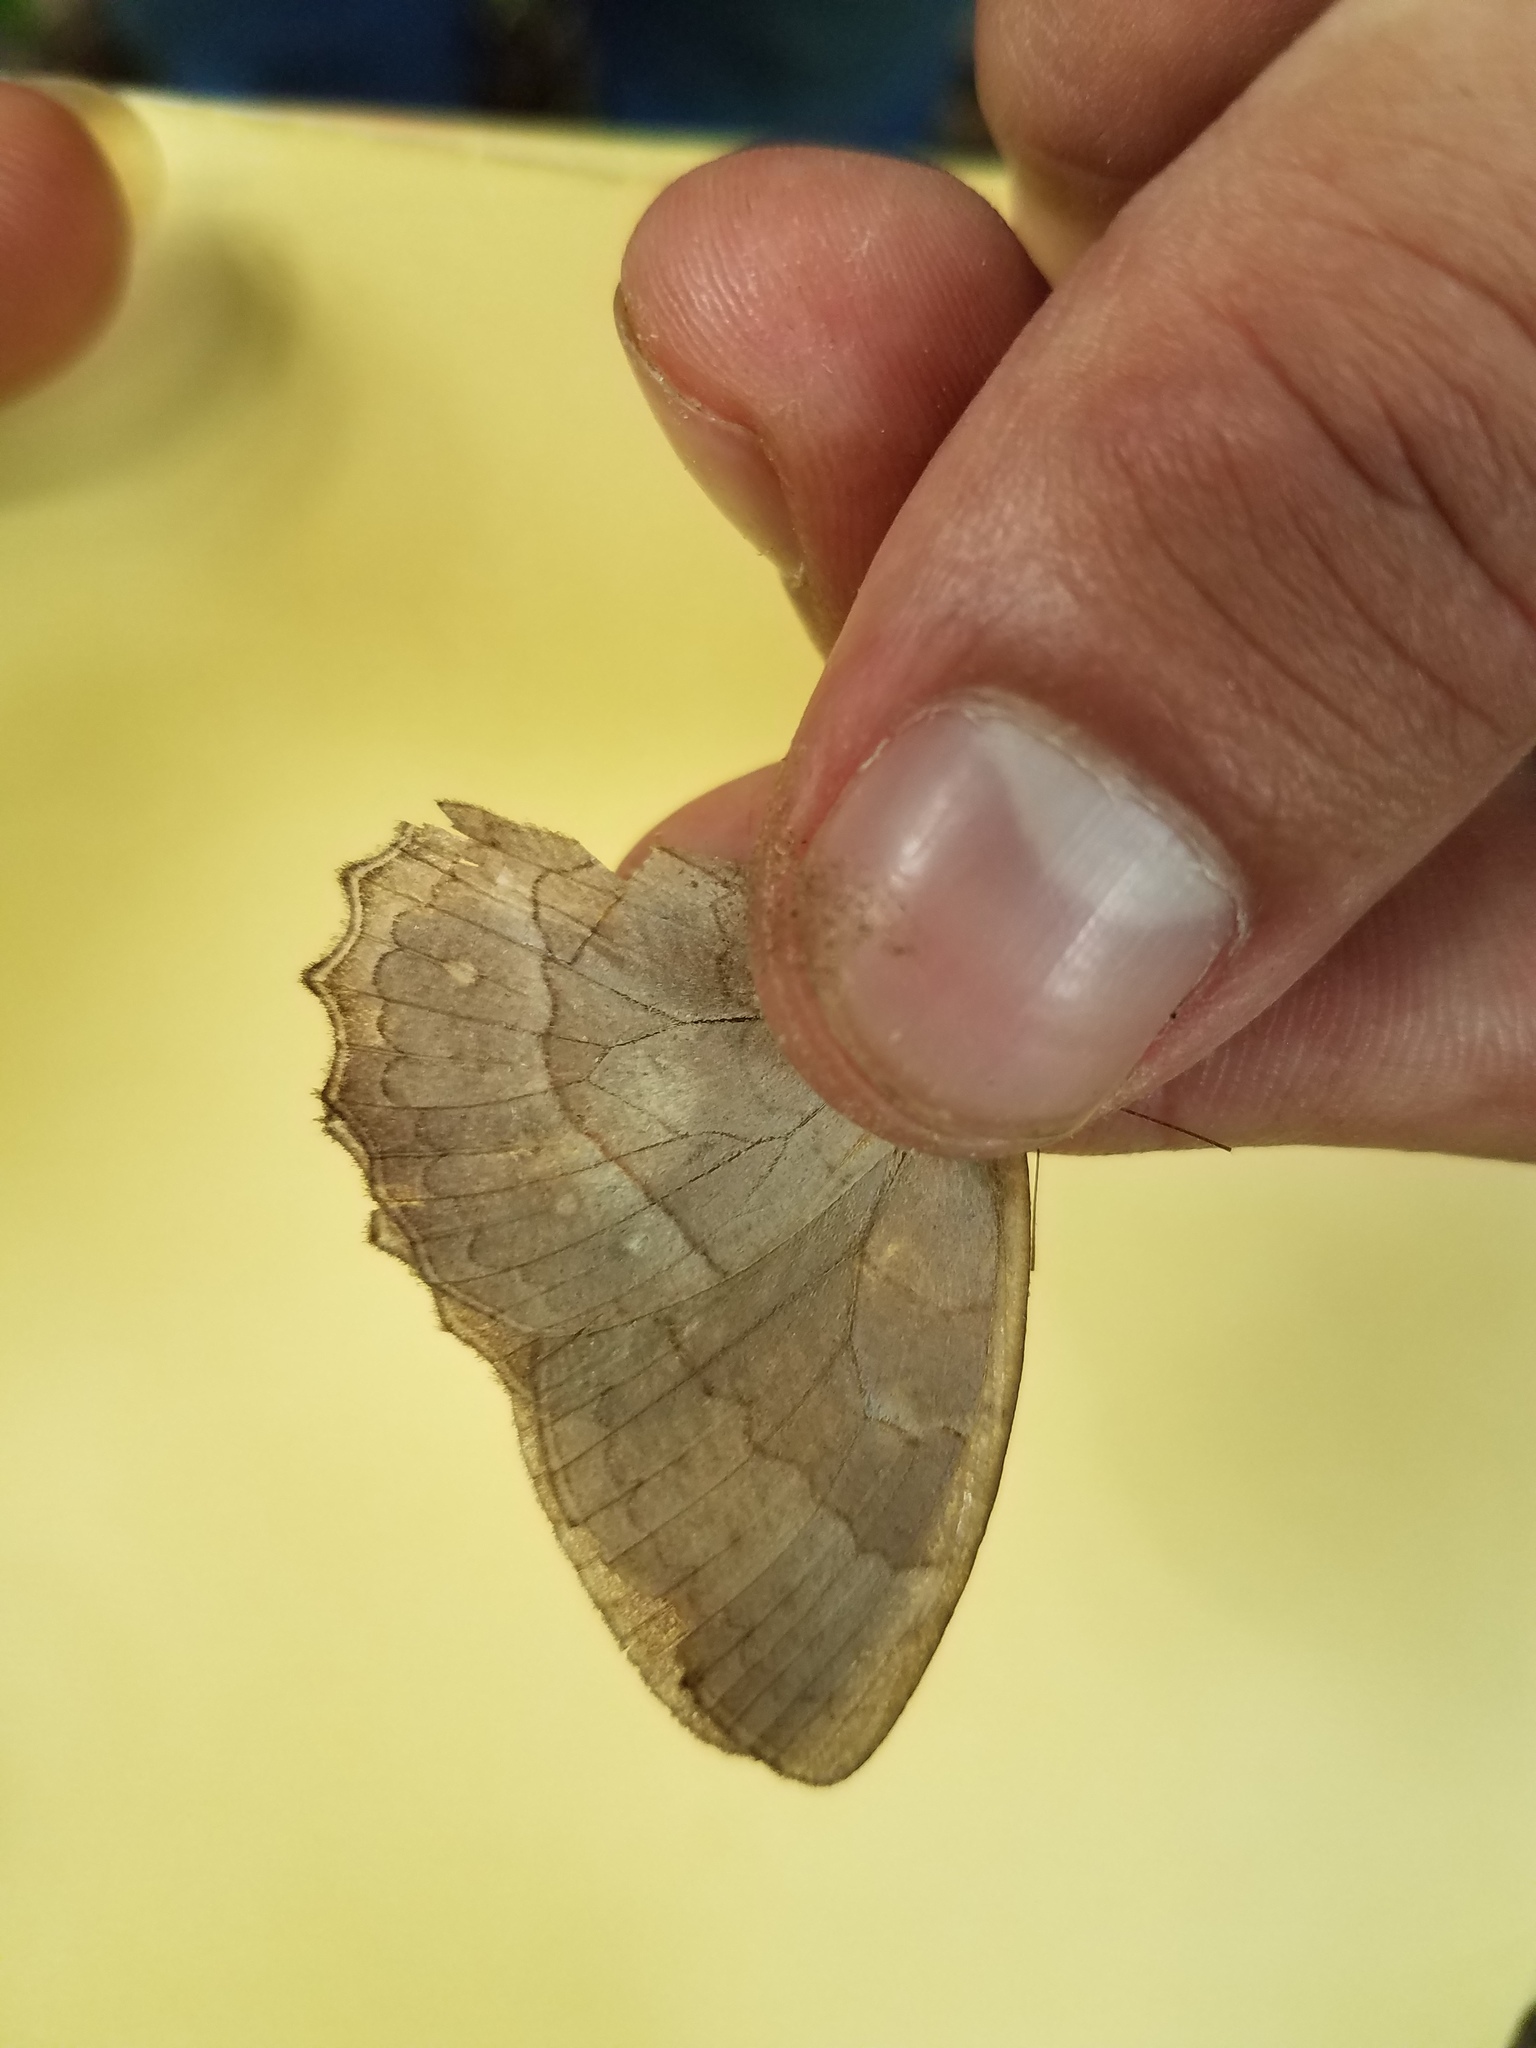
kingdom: Animalia
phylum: Arthropoda
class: Insecta
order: Lepidoptera
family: Nymphalidae
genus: Taygetina
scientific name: Taygetina kerea
